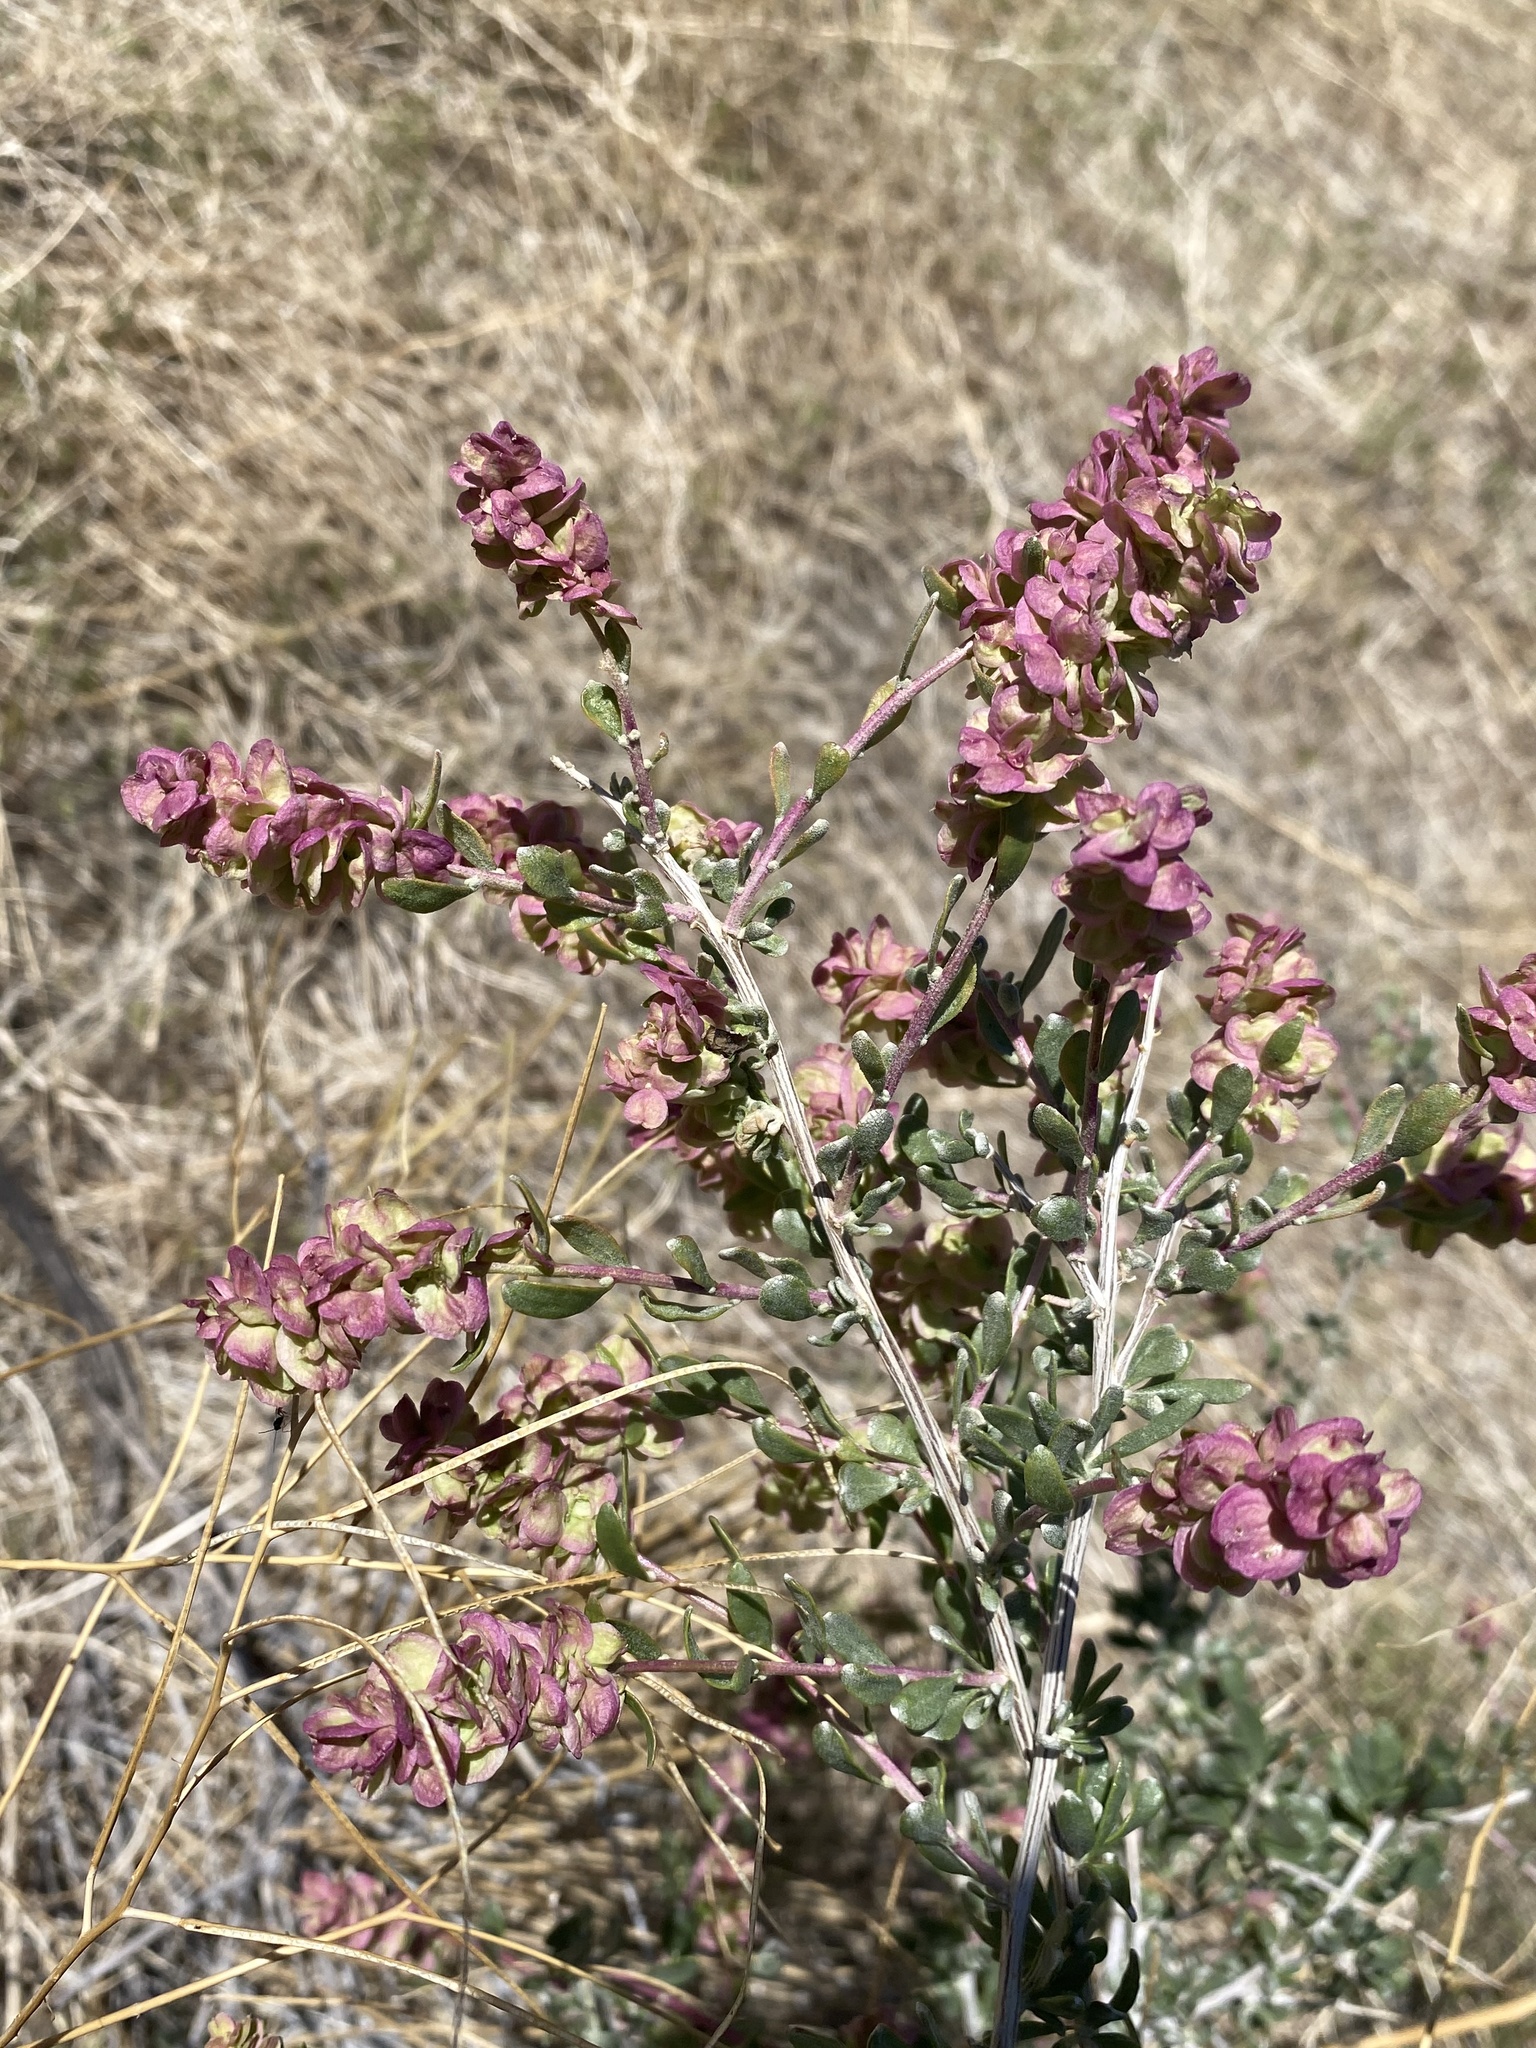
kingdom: Plantae
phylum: Tracheophyta
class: Magnoliopsida
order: Caryophyllales
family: Amaranthaceae
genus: Grayia
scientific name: Grayia spinosa
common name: Spiny hopsage
